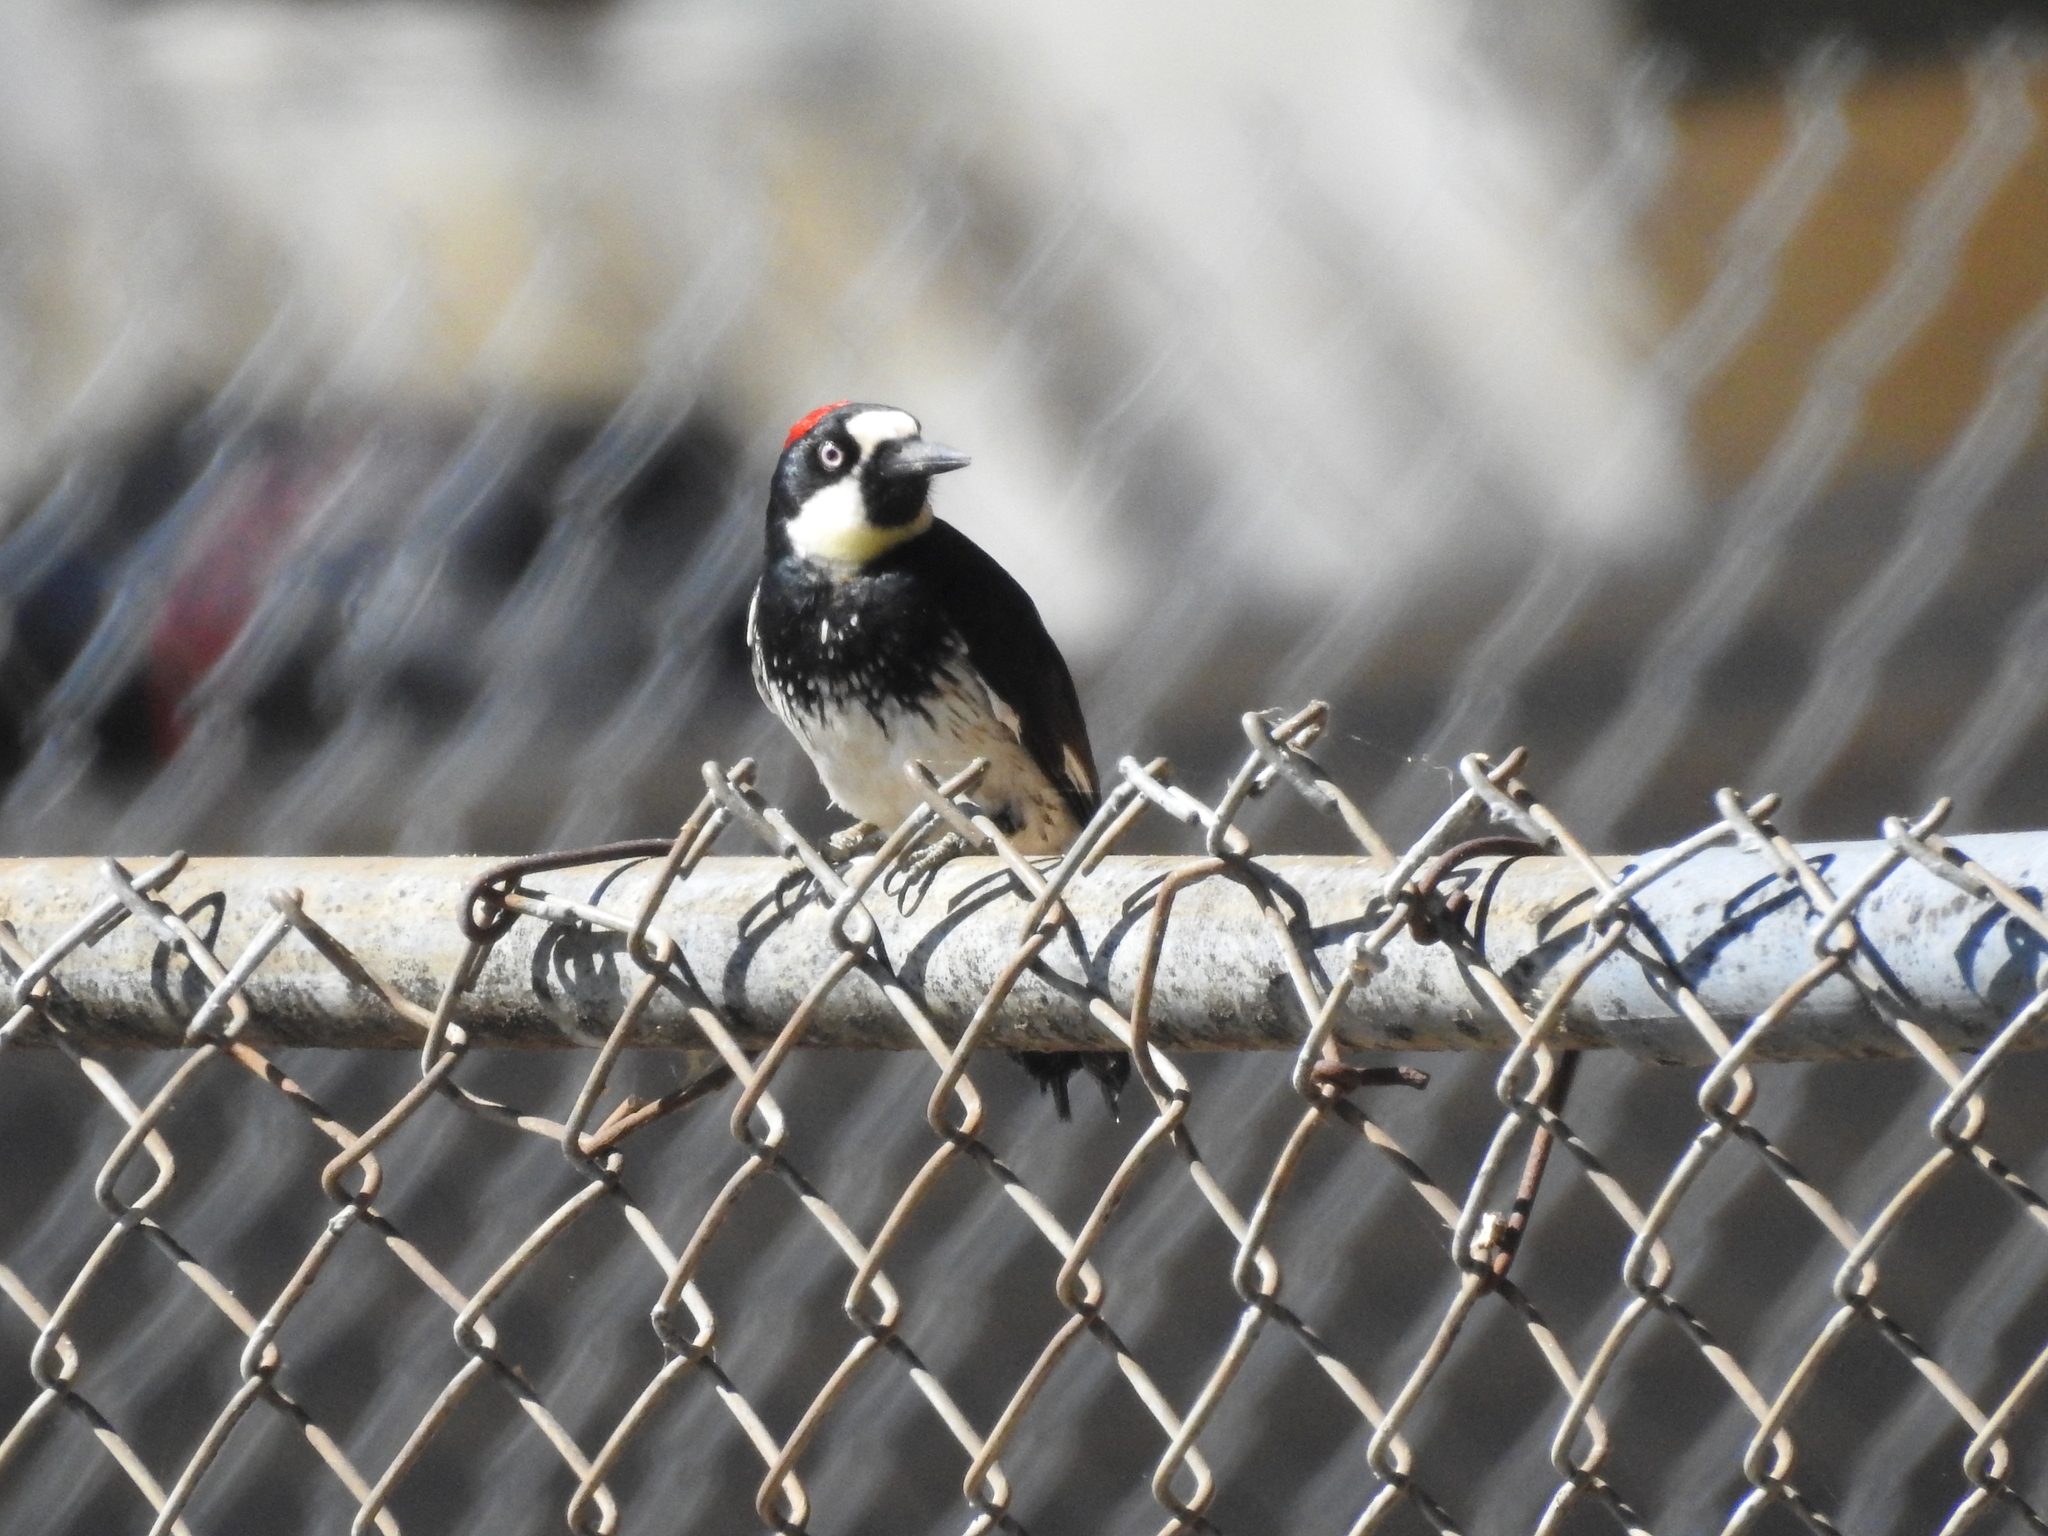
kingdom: Animalia
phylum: Chordata
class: Aves
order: Piciformes
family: Picidae
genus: Melanerpes
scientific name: Melanerpes formicivorus
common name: Acorn woodpecker
